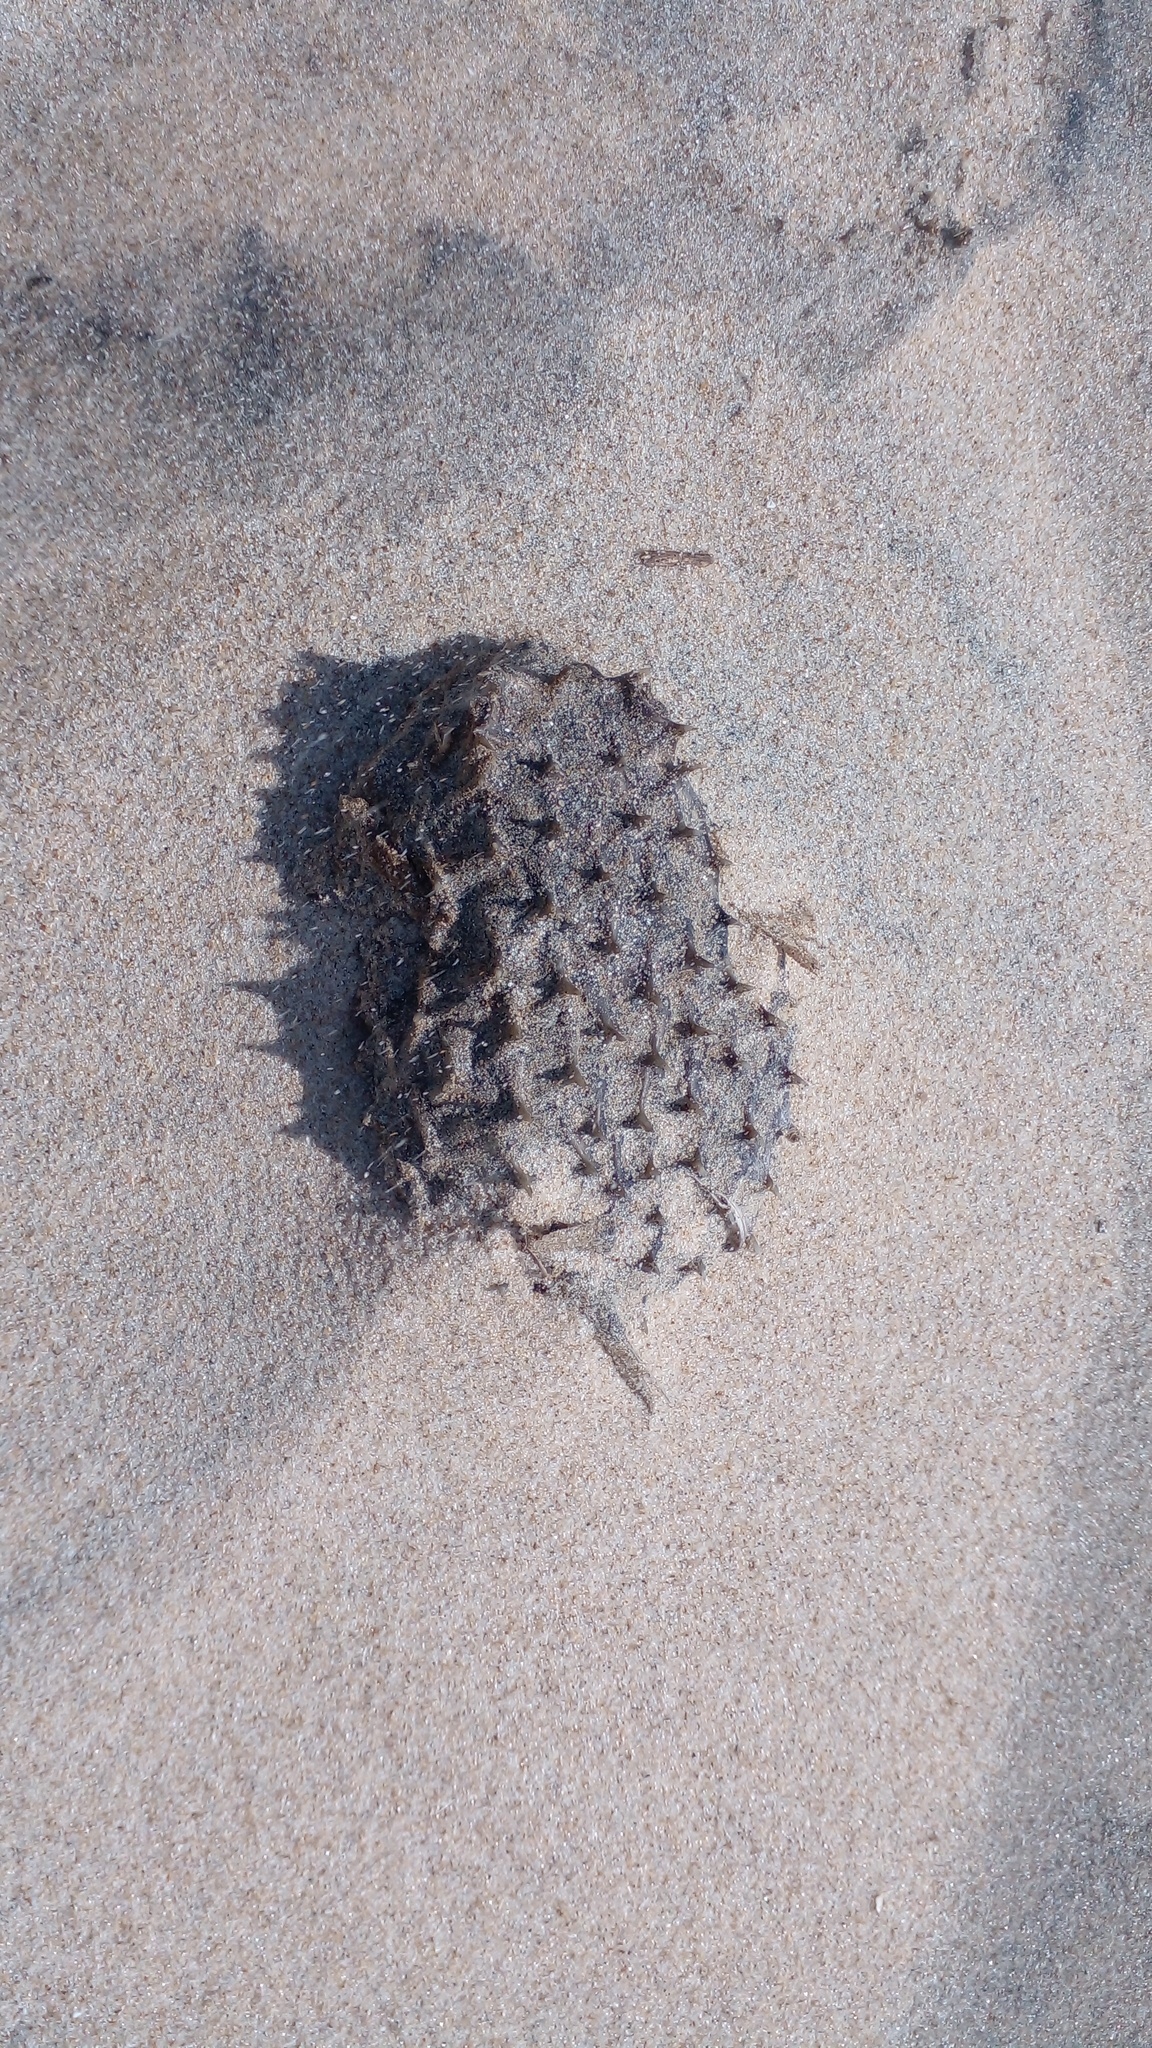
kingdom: Animalia
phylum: Chordata
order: Tetraodontiformes
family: Diodontidae
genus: Chilomycterus
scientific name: Chilomycterus spinosus
